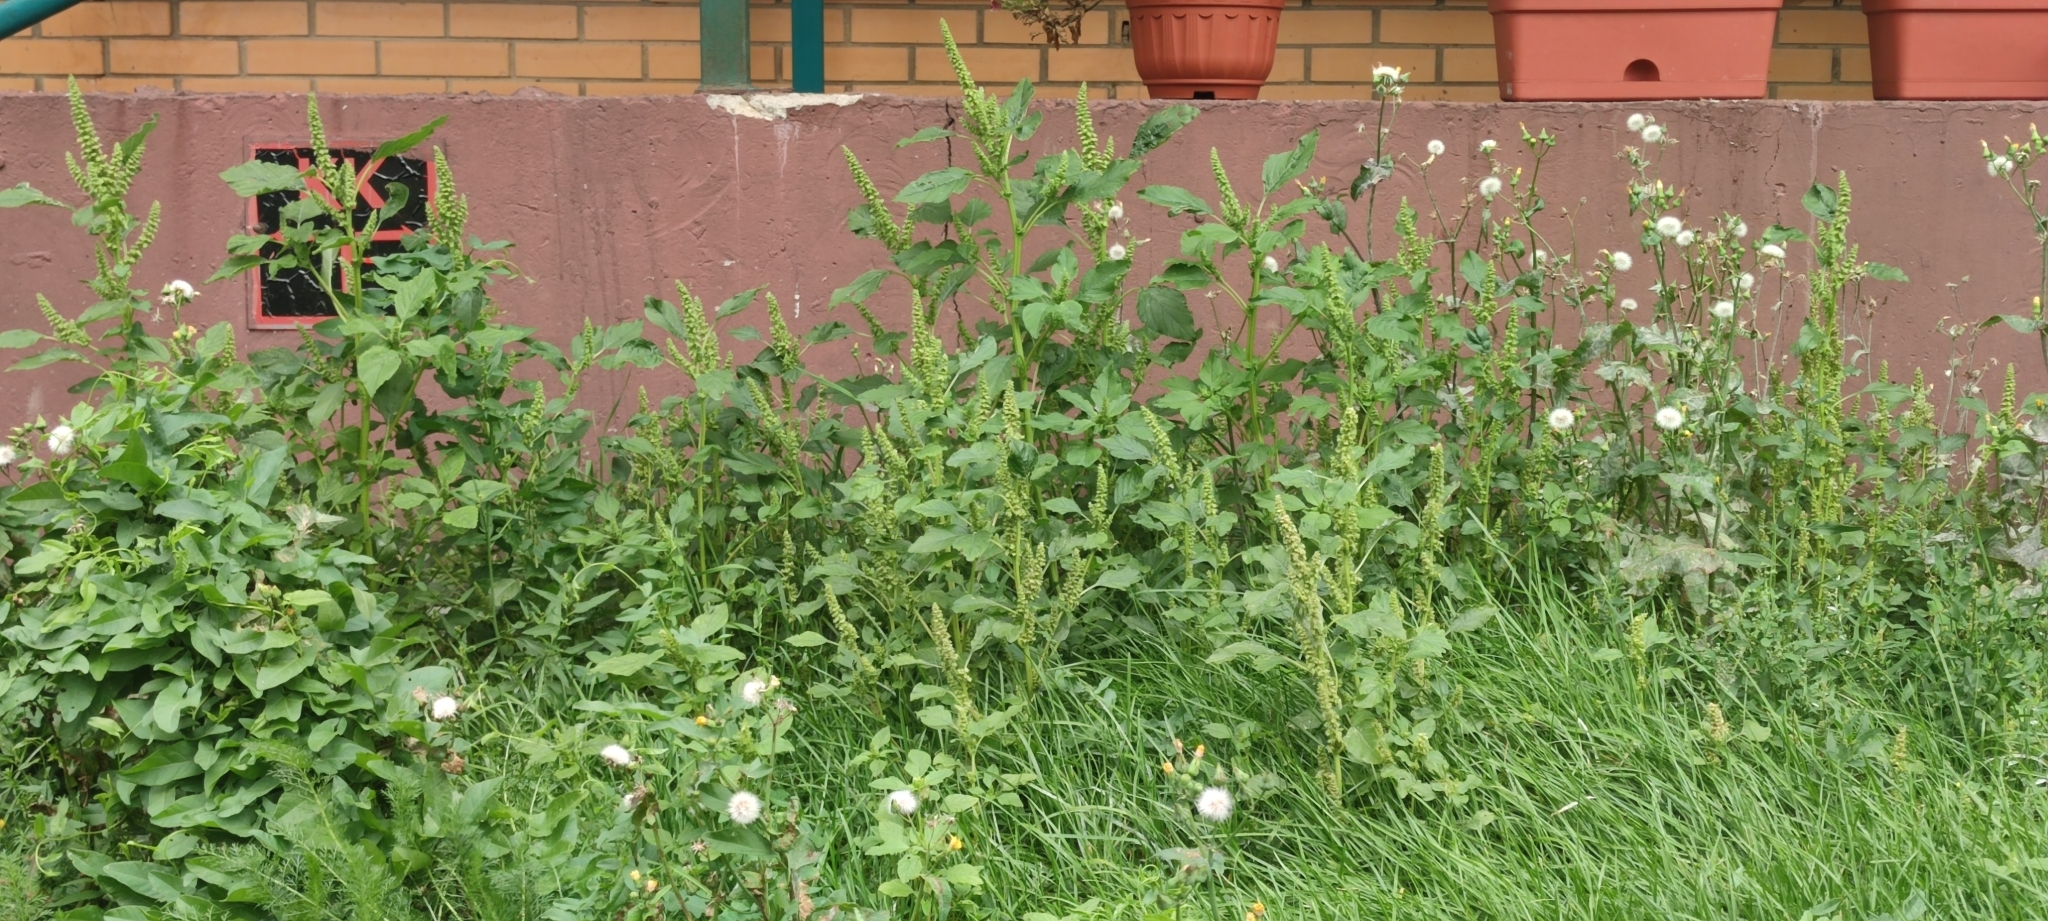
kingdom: Plantae
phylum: Tracheophyta
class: Magnoliopsida
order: Caryophyllales
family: Amaranthaceae
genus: Amaranthus
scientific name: Amaranthus retroflexus
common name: Redroot amaranth
